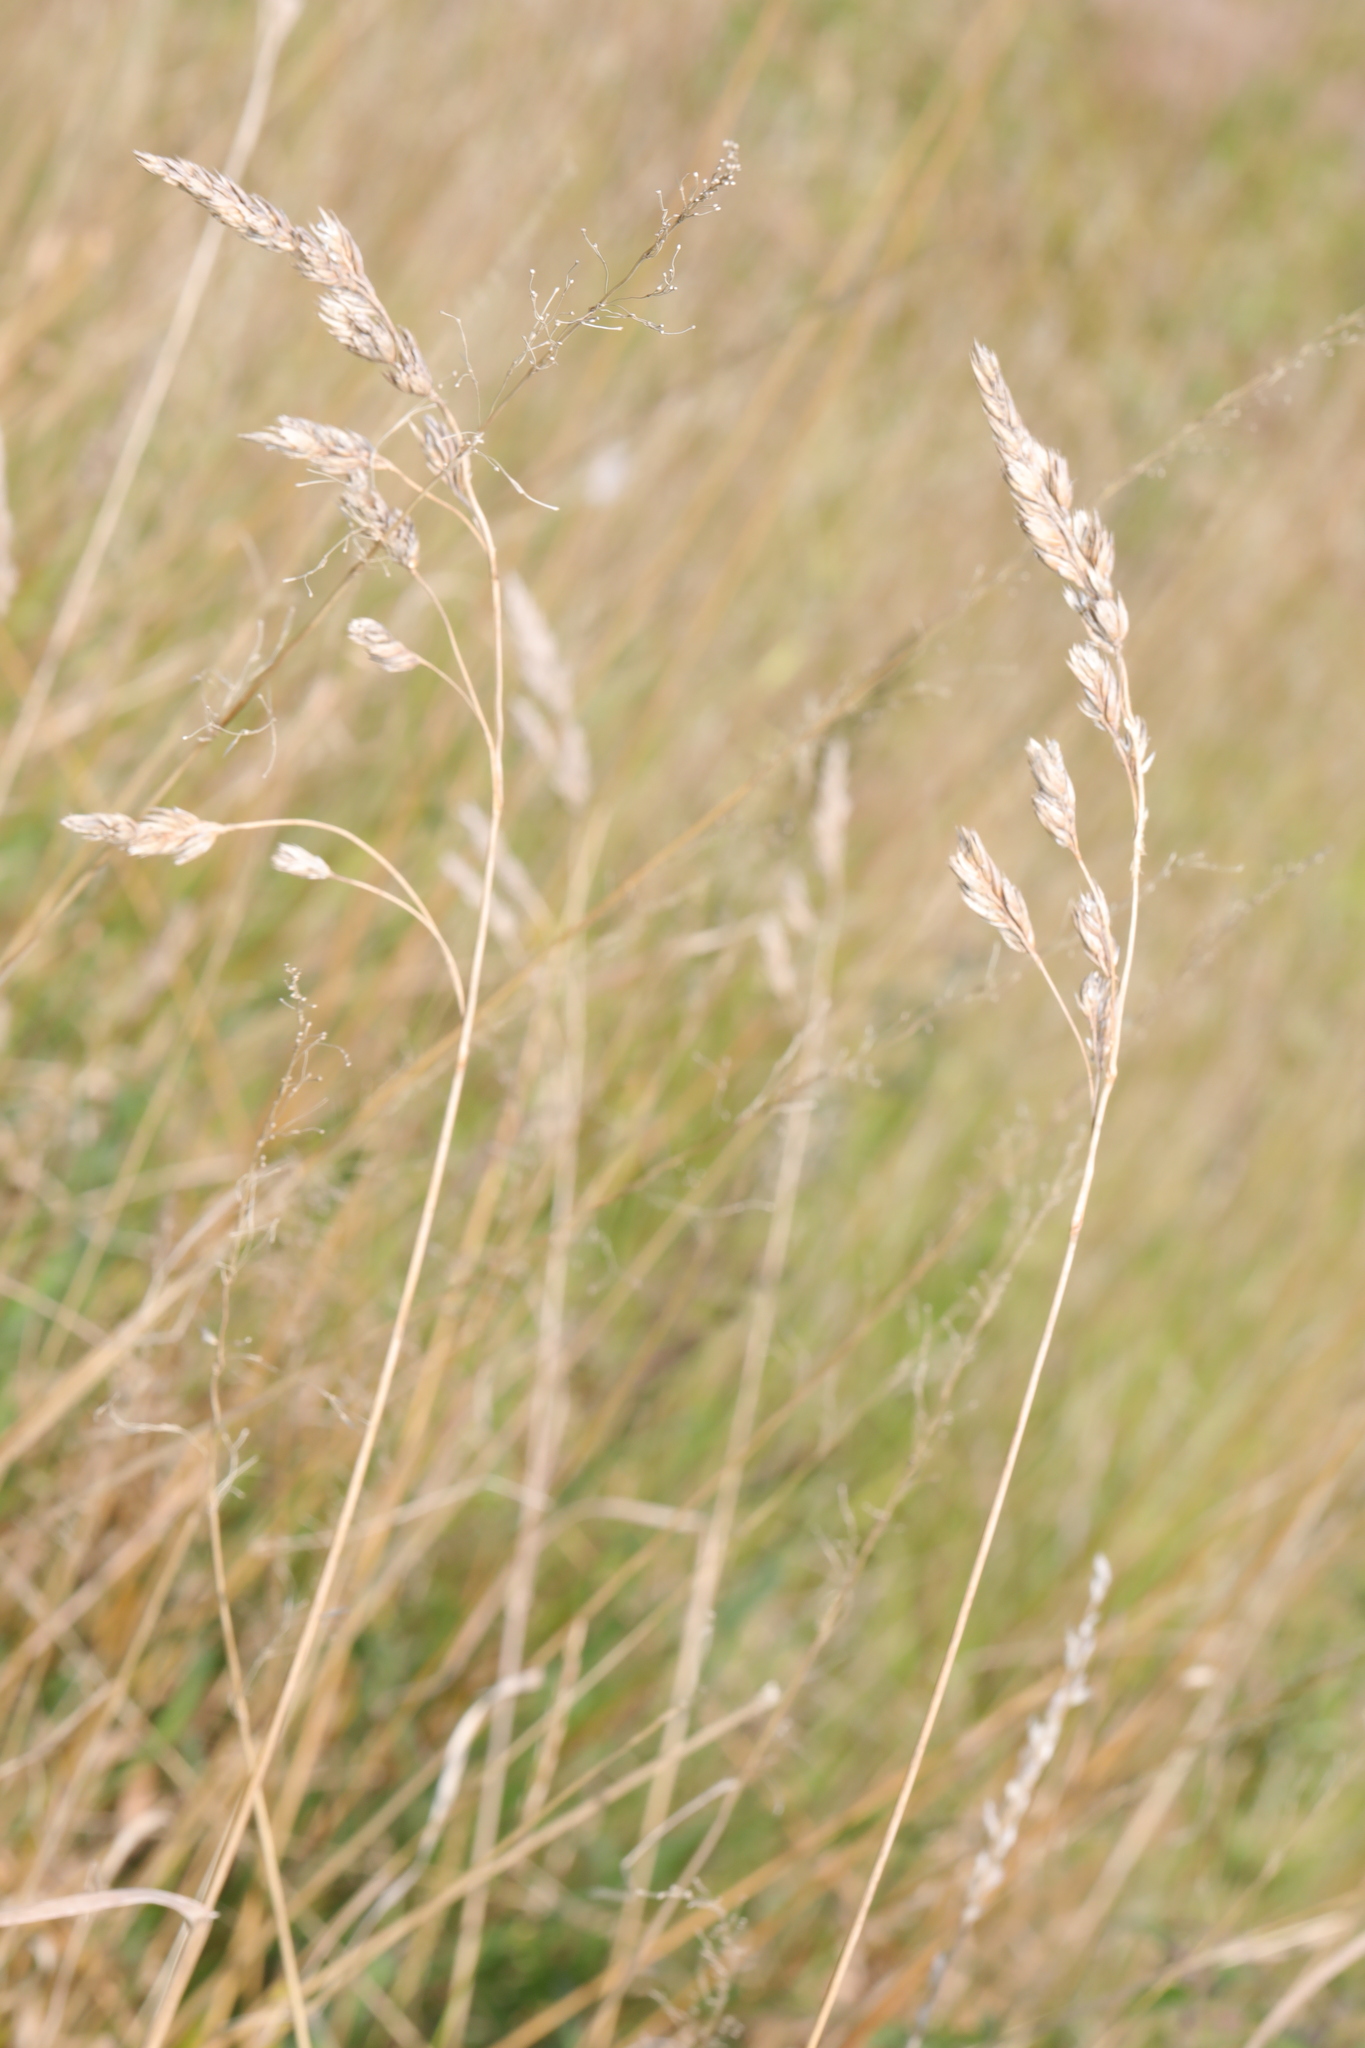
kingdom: Plantae
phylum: Tracheophyta
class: Liliopsida
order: Poales
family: Poaceae
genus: Dactylis
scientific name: Dactylis glomerata
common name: Orchardgrass
